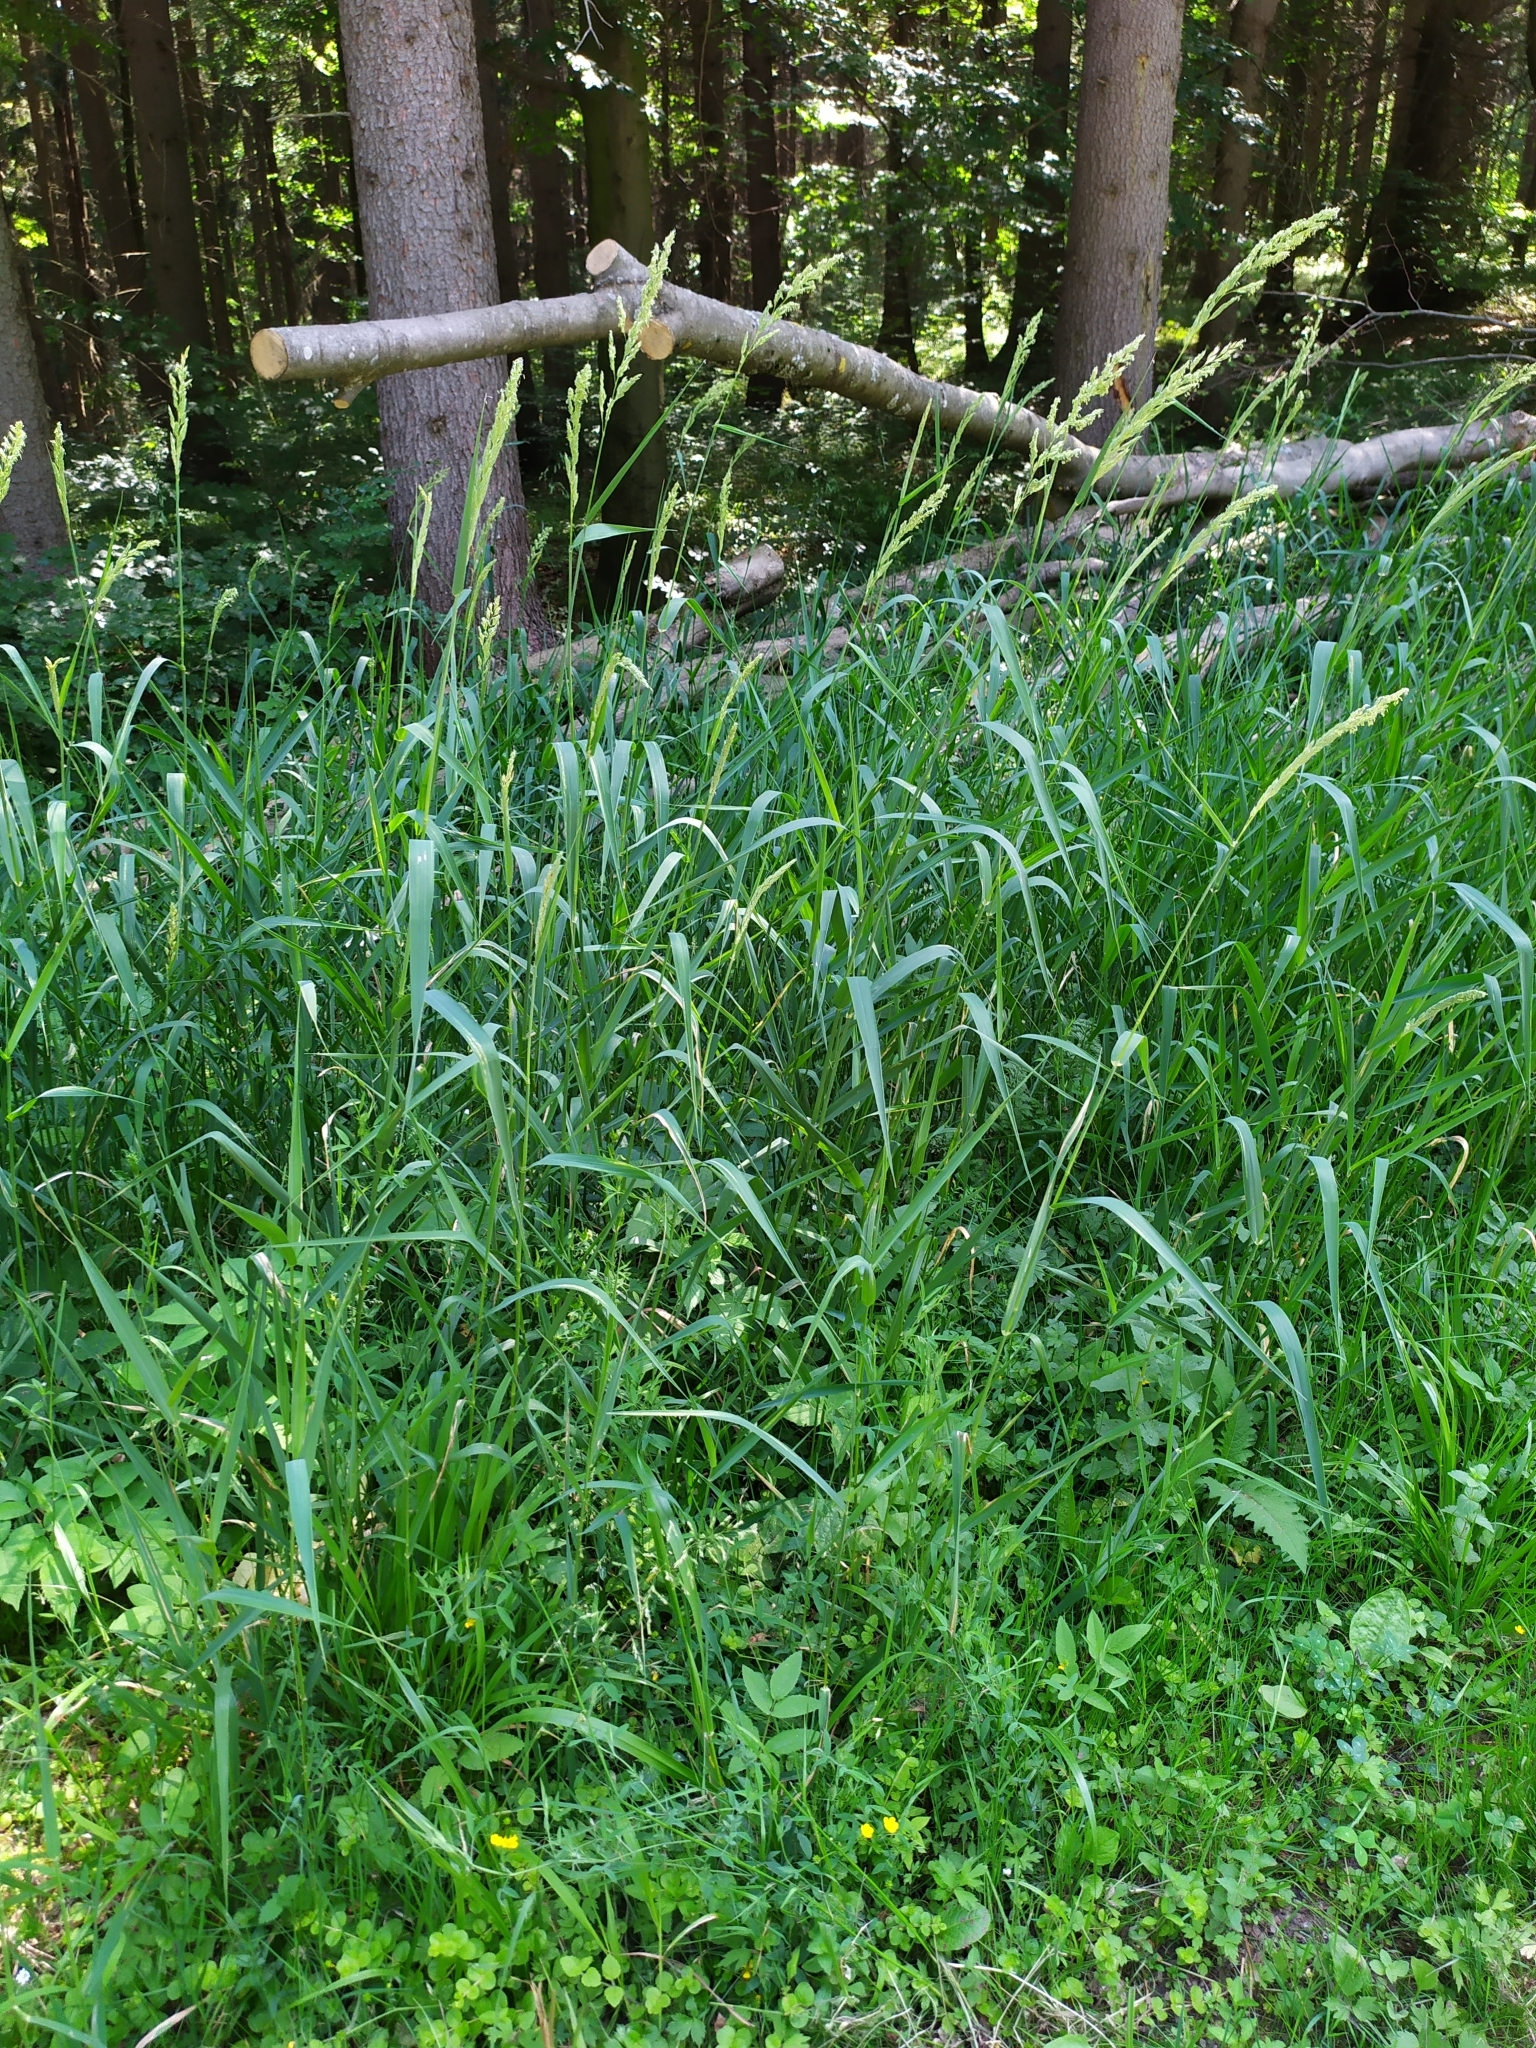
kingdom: Plantae
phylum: Tracheophyta
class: Liliopsida
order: Poales
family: Poaceae
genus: Phalaris
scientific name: Phalaris arundinacea
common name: Reed canary-grass
